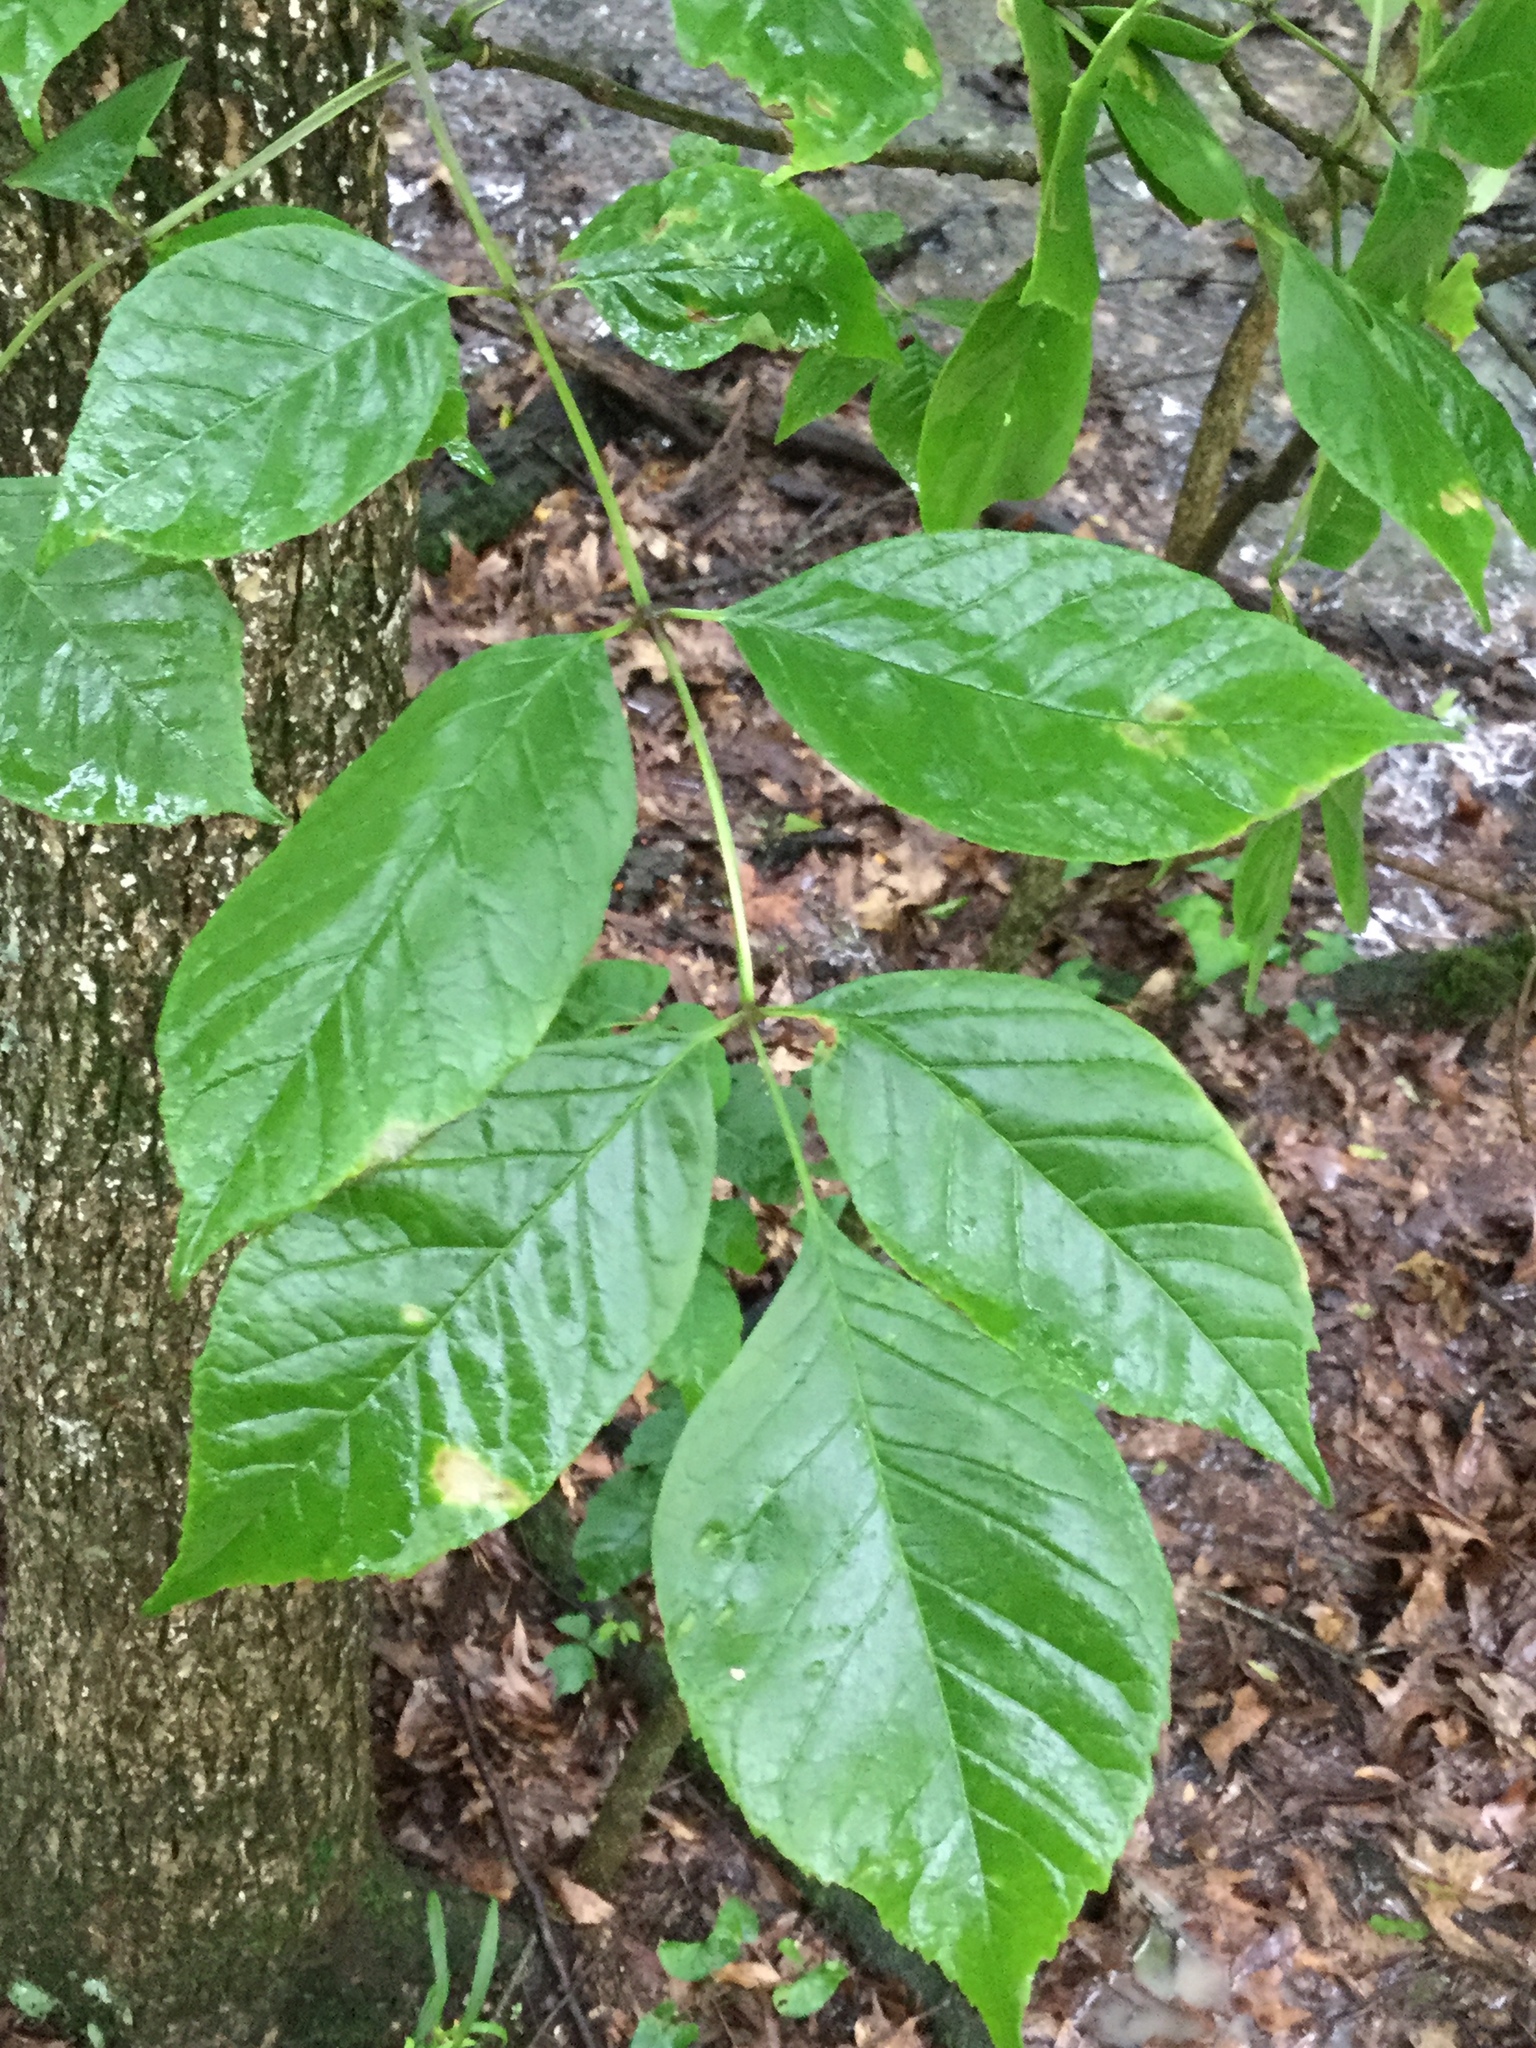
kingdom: Plantae
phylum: Tracheophyta
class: Magnoliopsida
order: Lamiales
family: Oleaceae
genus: Fraxinus
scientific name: Fraxinus pennsylvanica
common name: Green ash
